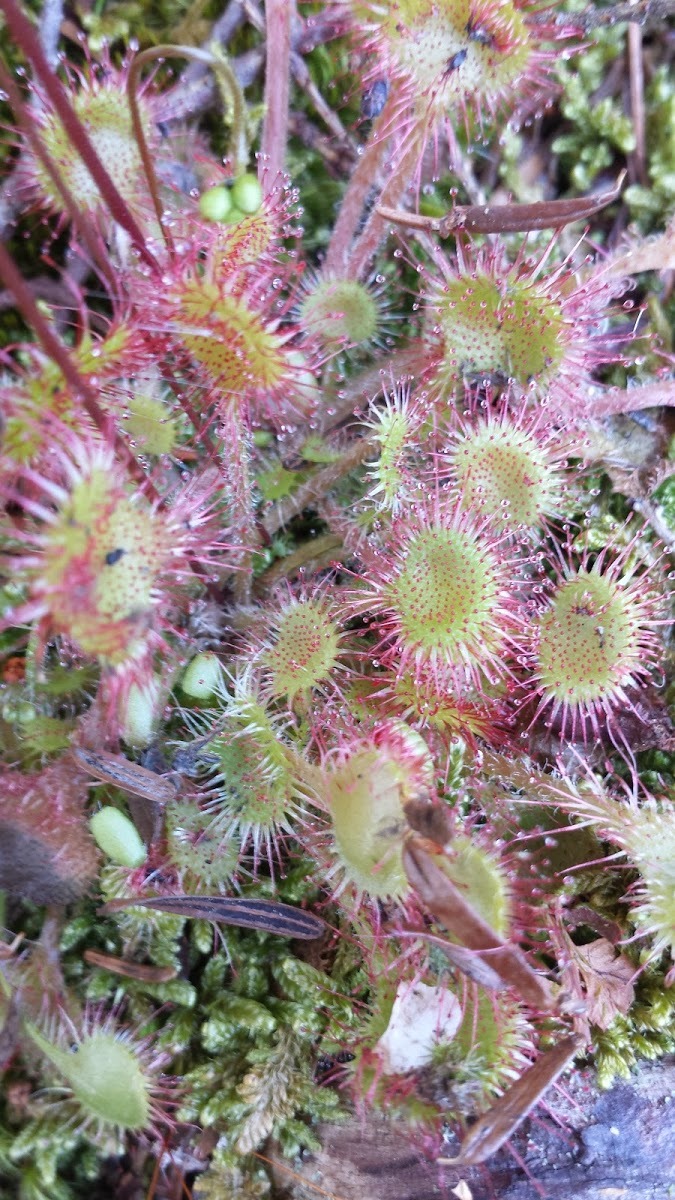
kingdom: Plantae
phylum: Tracheophyta
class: Magnoliopsida
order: Caryophyllales
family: Droseraceae
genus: Drosera
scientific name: Drosera rotundifolia
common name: Round-leaved sundew
